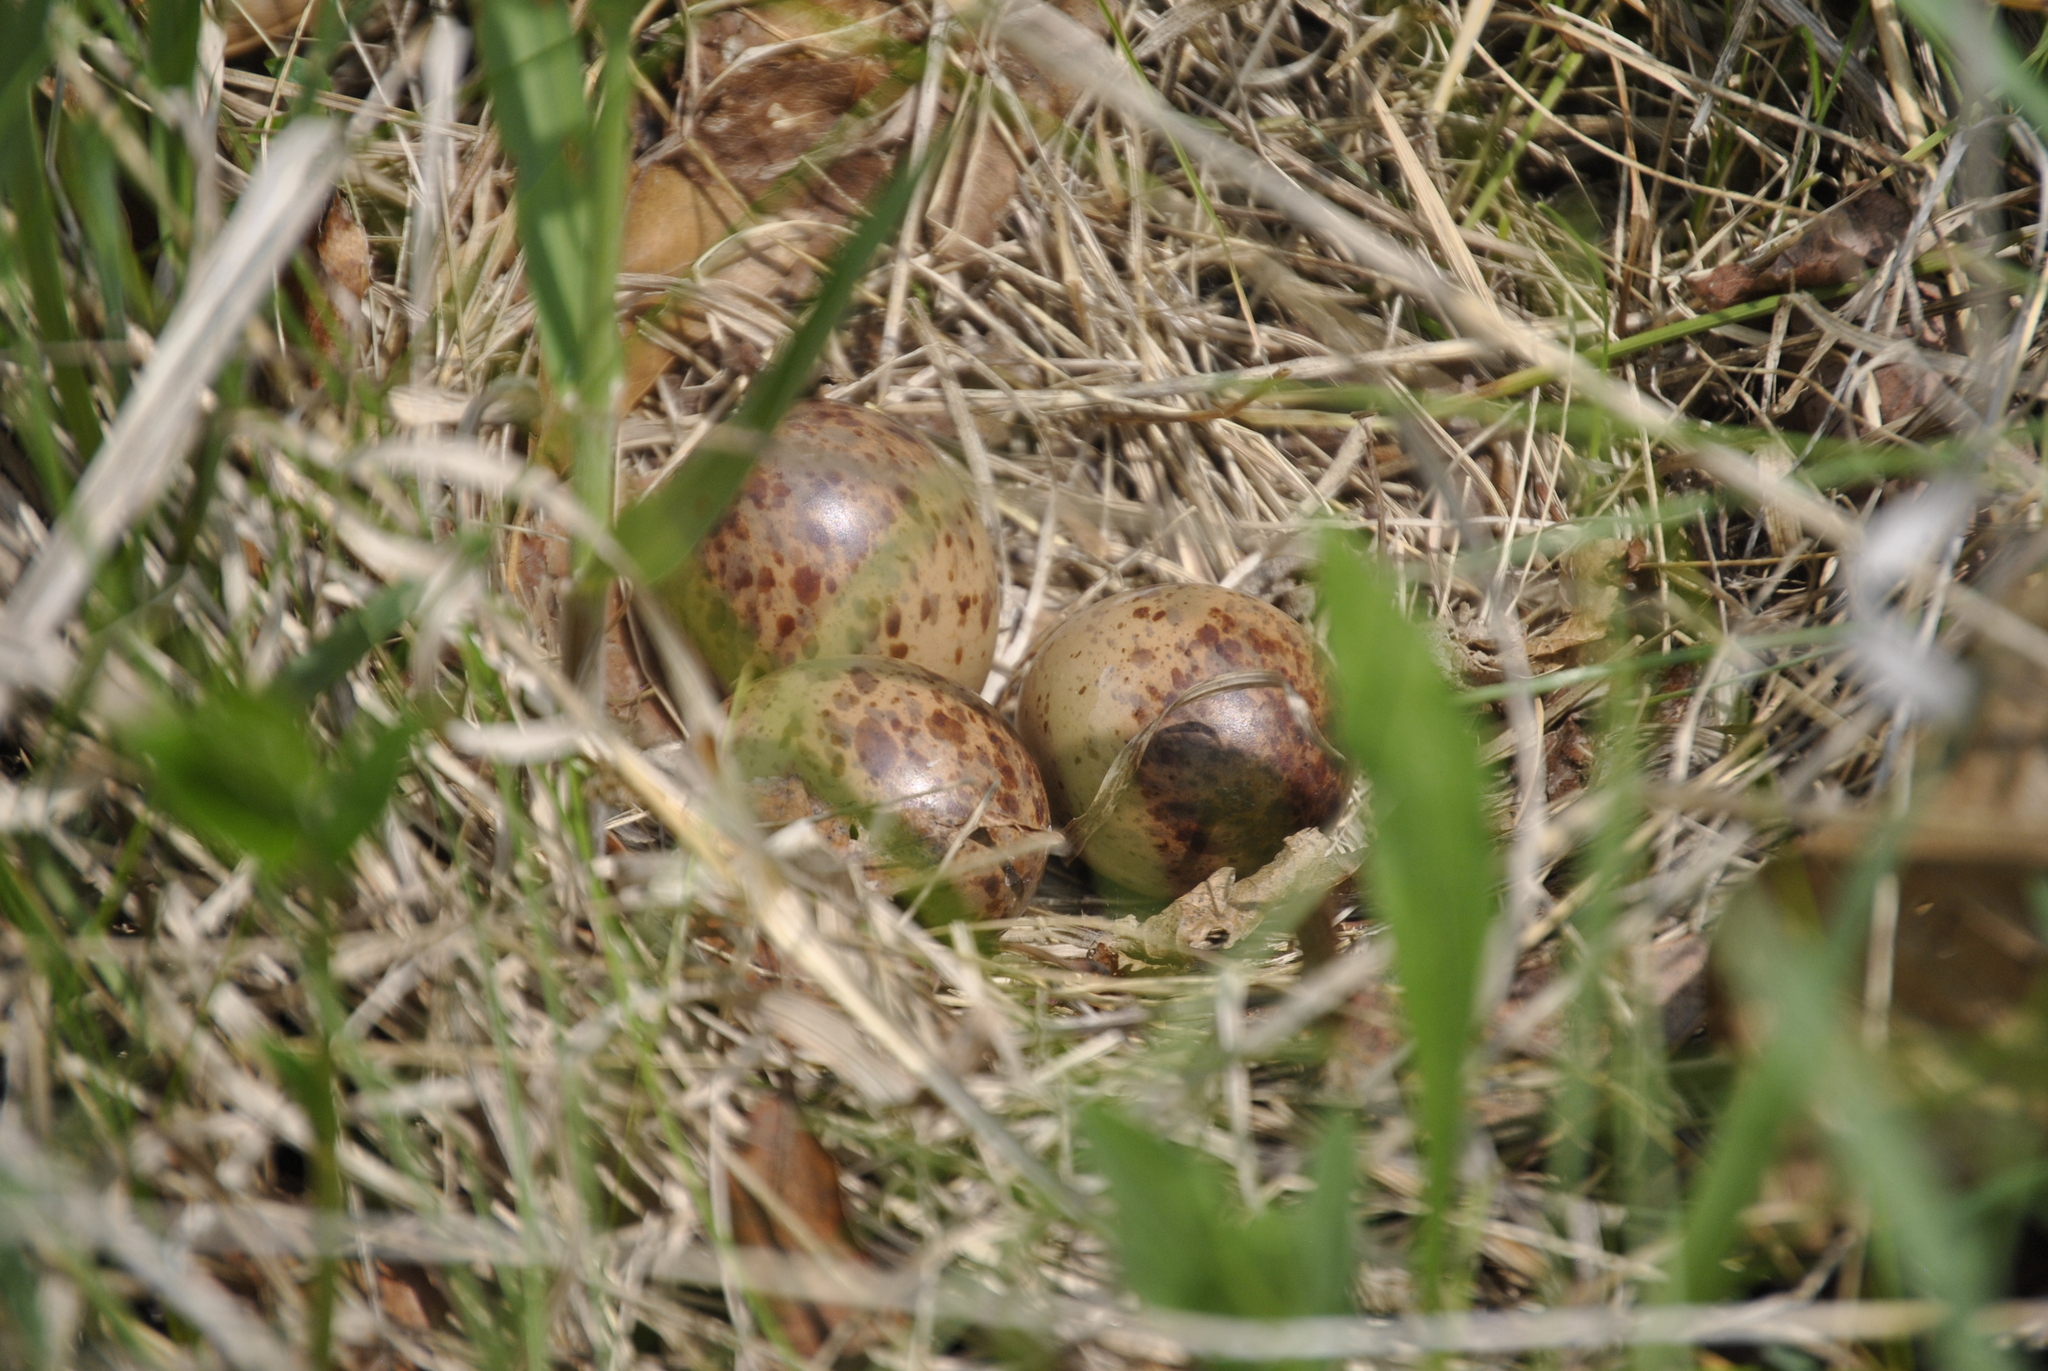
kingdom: Animalia
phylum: Chordata
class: Aves
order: Charadriiformes
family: Scolopacidae
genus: Scolopax
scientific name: Scolopax minor
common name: American woodcock
